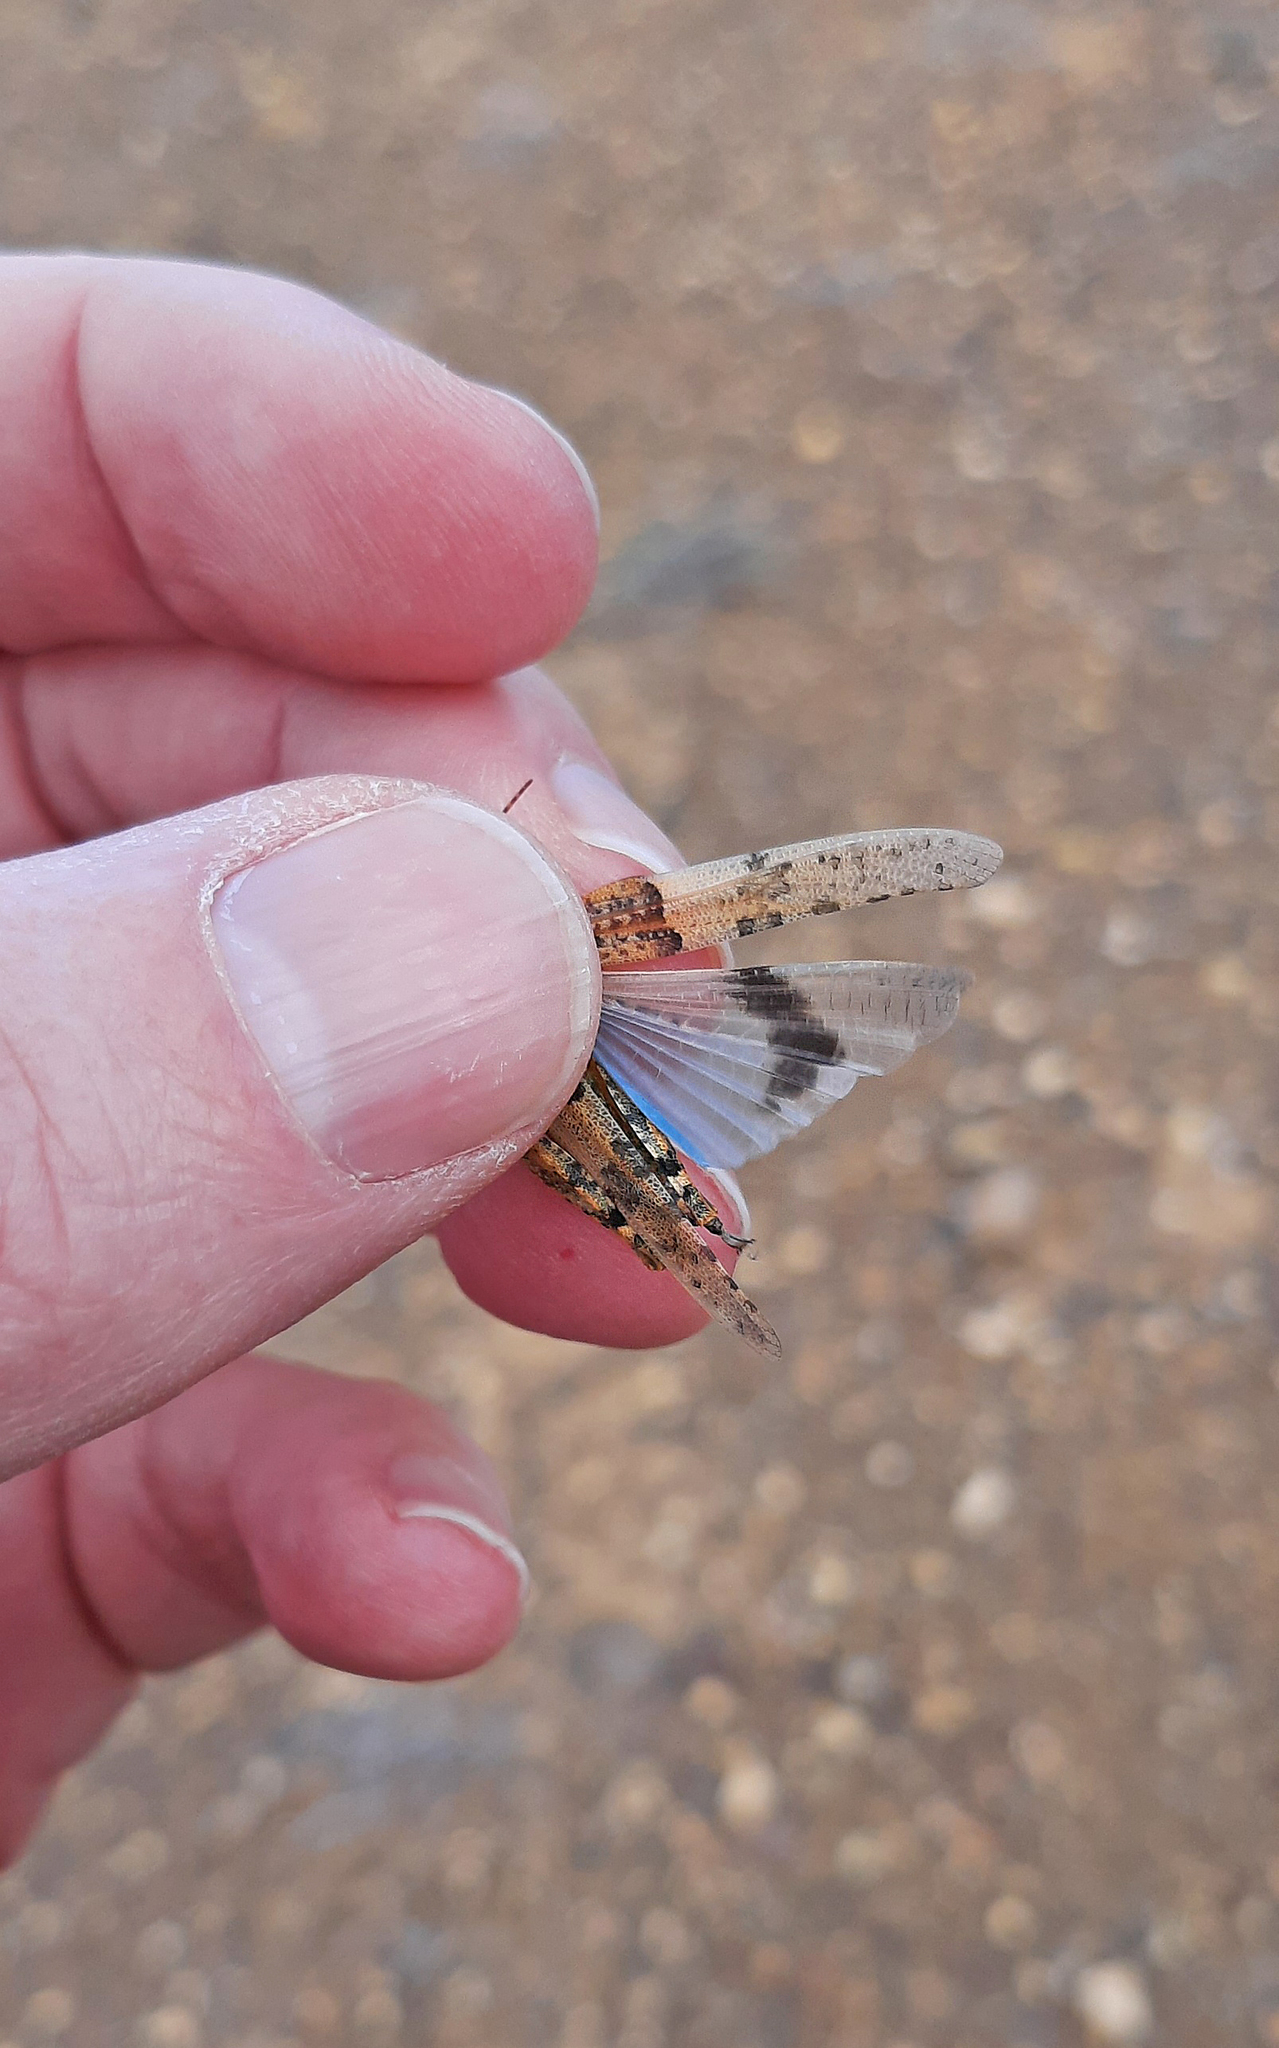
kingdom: Animalia
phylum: Arthropoda
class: Insecta
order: Orthoptera
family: Acrididae
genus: Sphingonotus
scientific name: Sphingonotus fuerteventurae
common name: Fuerteventura sand grasshopper
